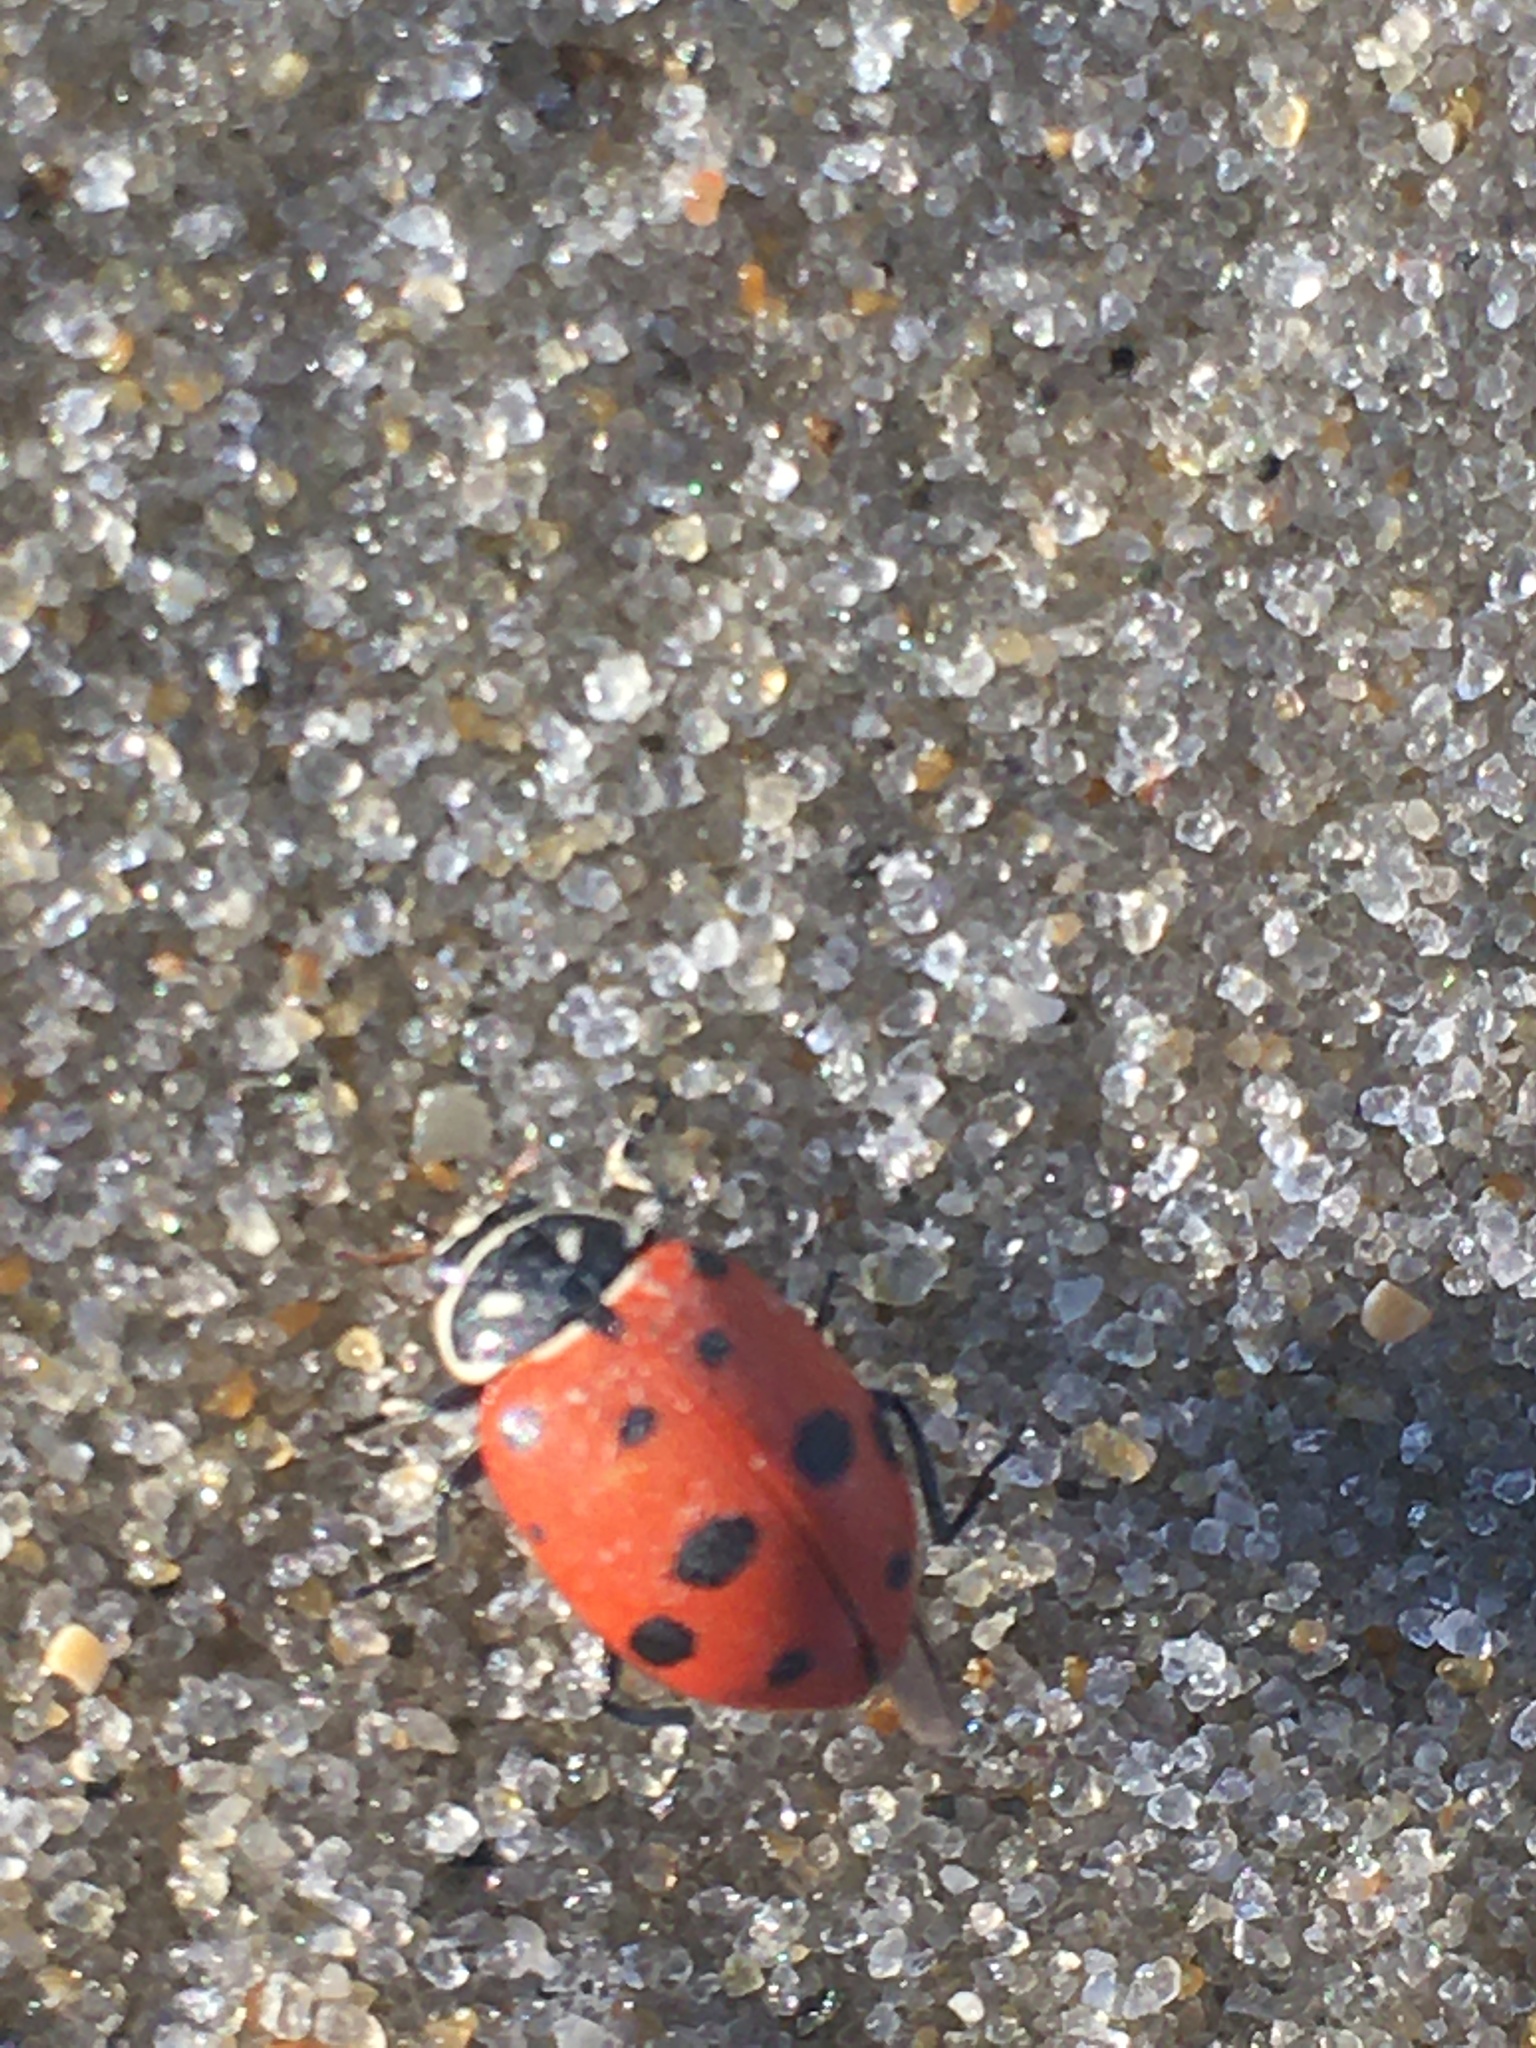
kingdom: Animalia
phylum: Arthropoda
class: Insecta
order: Coleoptera
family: Coccinellidae
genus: Hippodamia
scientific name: Hippodamia convergens
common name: Convergent lady beetle
